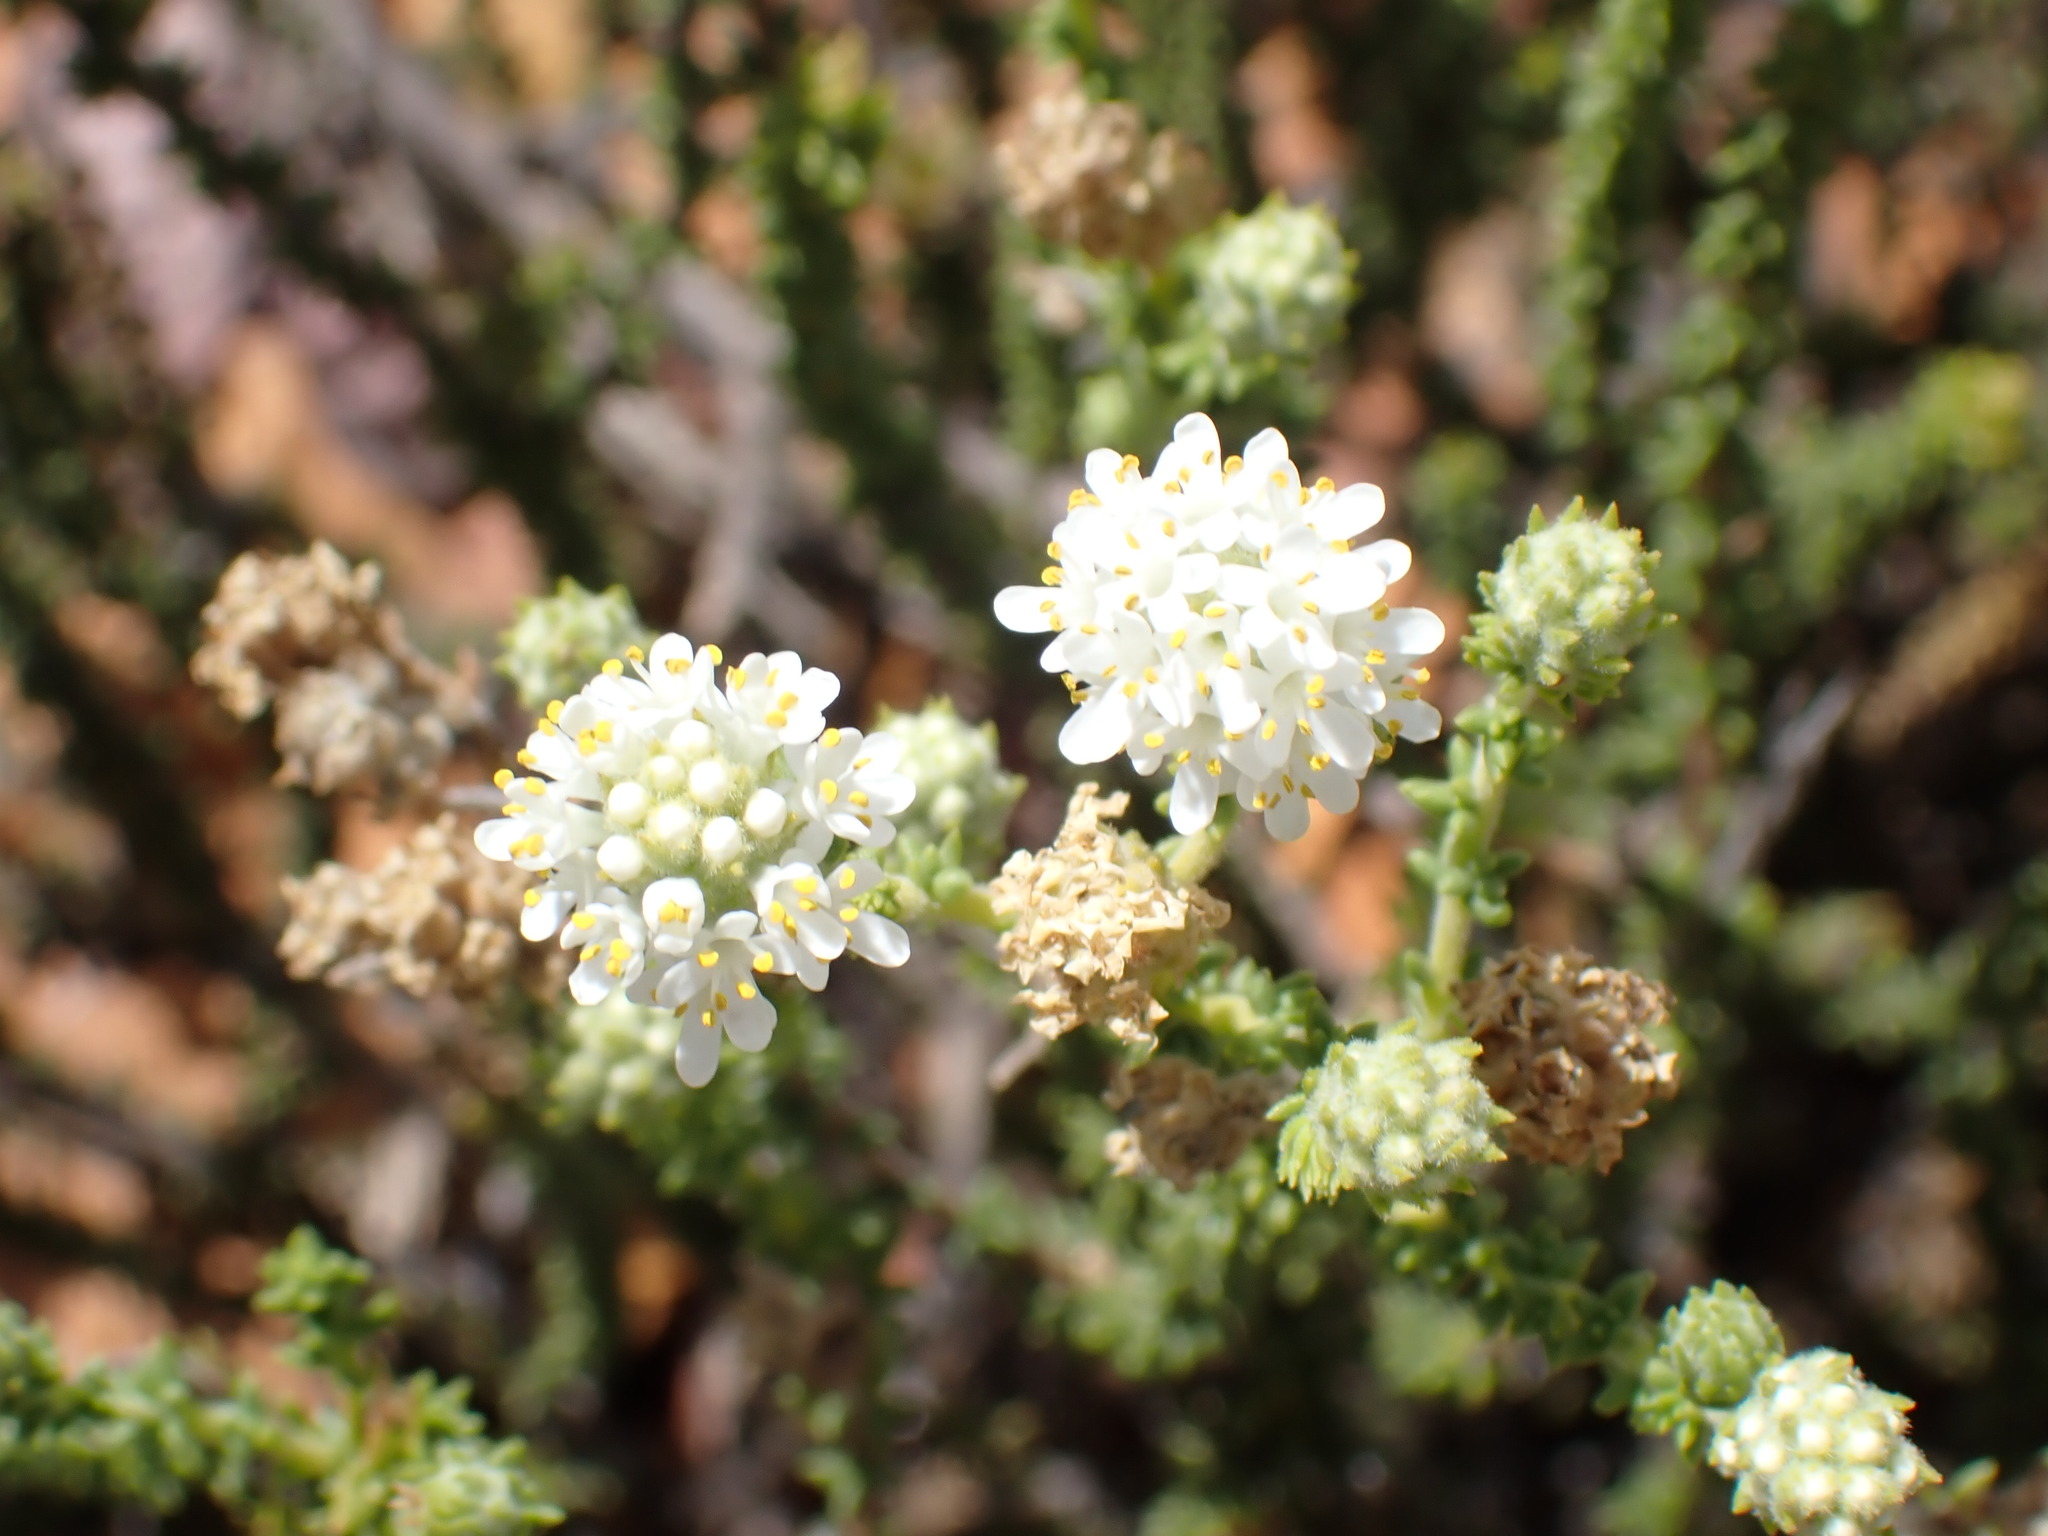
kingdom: Plantae
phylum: Tracheophyta
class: Magnoliopsida
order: Lamiales
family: Scrophulariaceae
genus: Selago
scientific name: Selago karooica
